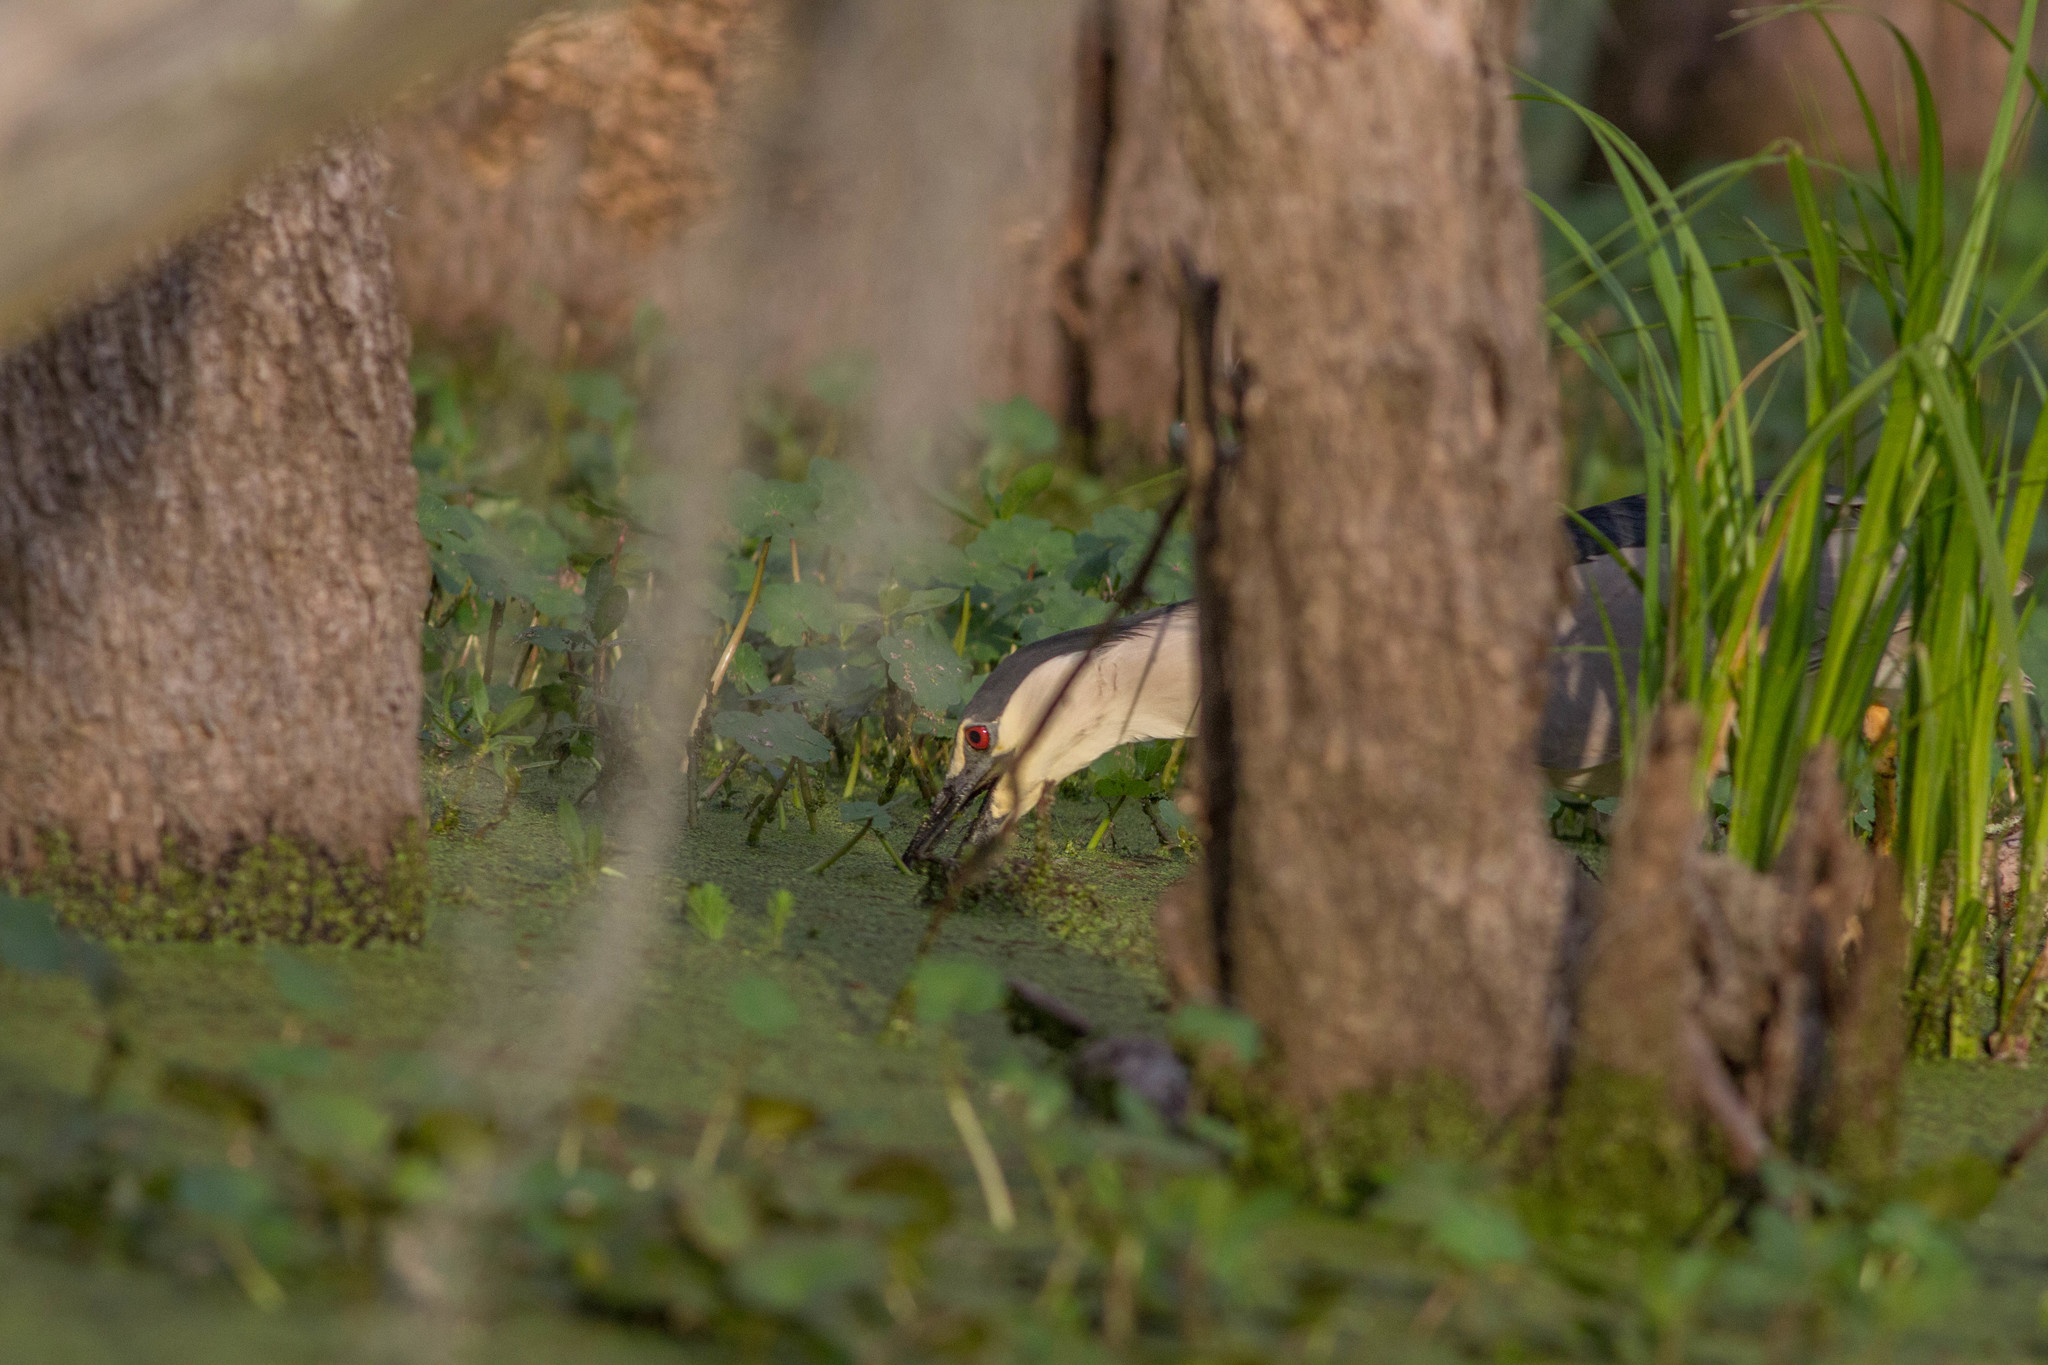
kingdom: Animalia
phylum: Chordata
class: Aves
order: Pelecaniformes
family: Ardeidae
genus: Nycticorax
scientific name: Nycticorax nycticorax
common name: Black-crowned night heron
